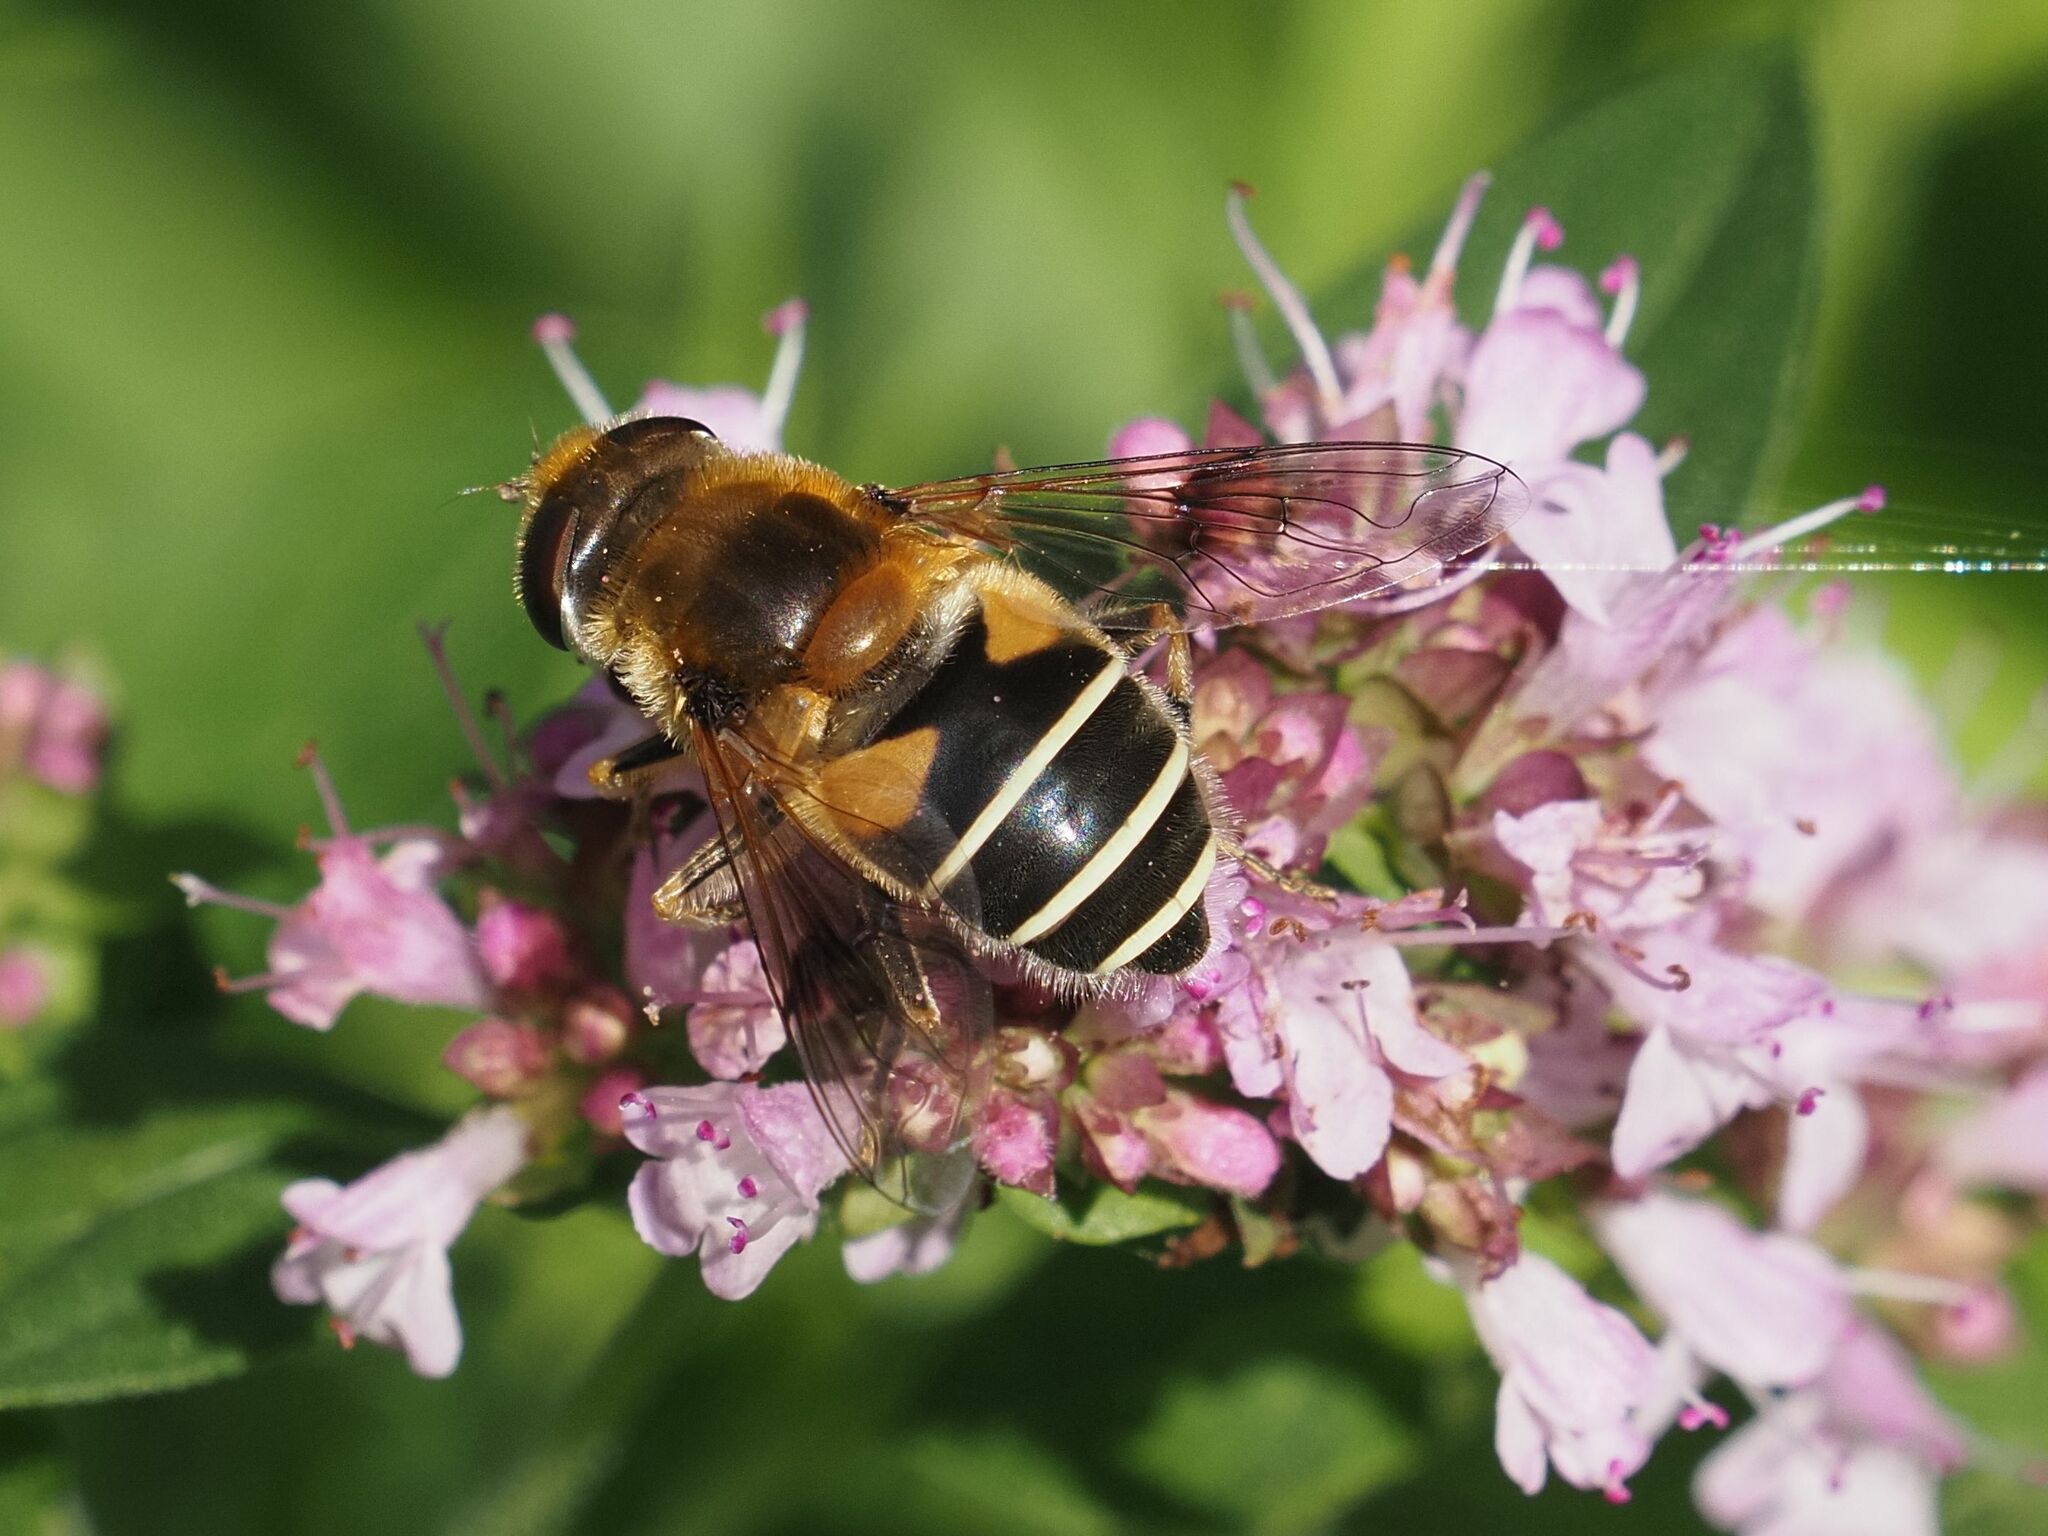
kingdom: Animalia
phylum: Arthropoda
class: Insecta
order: Diptera
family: Syrphidae
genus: Eristalis
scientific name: Eristalis jugorum
